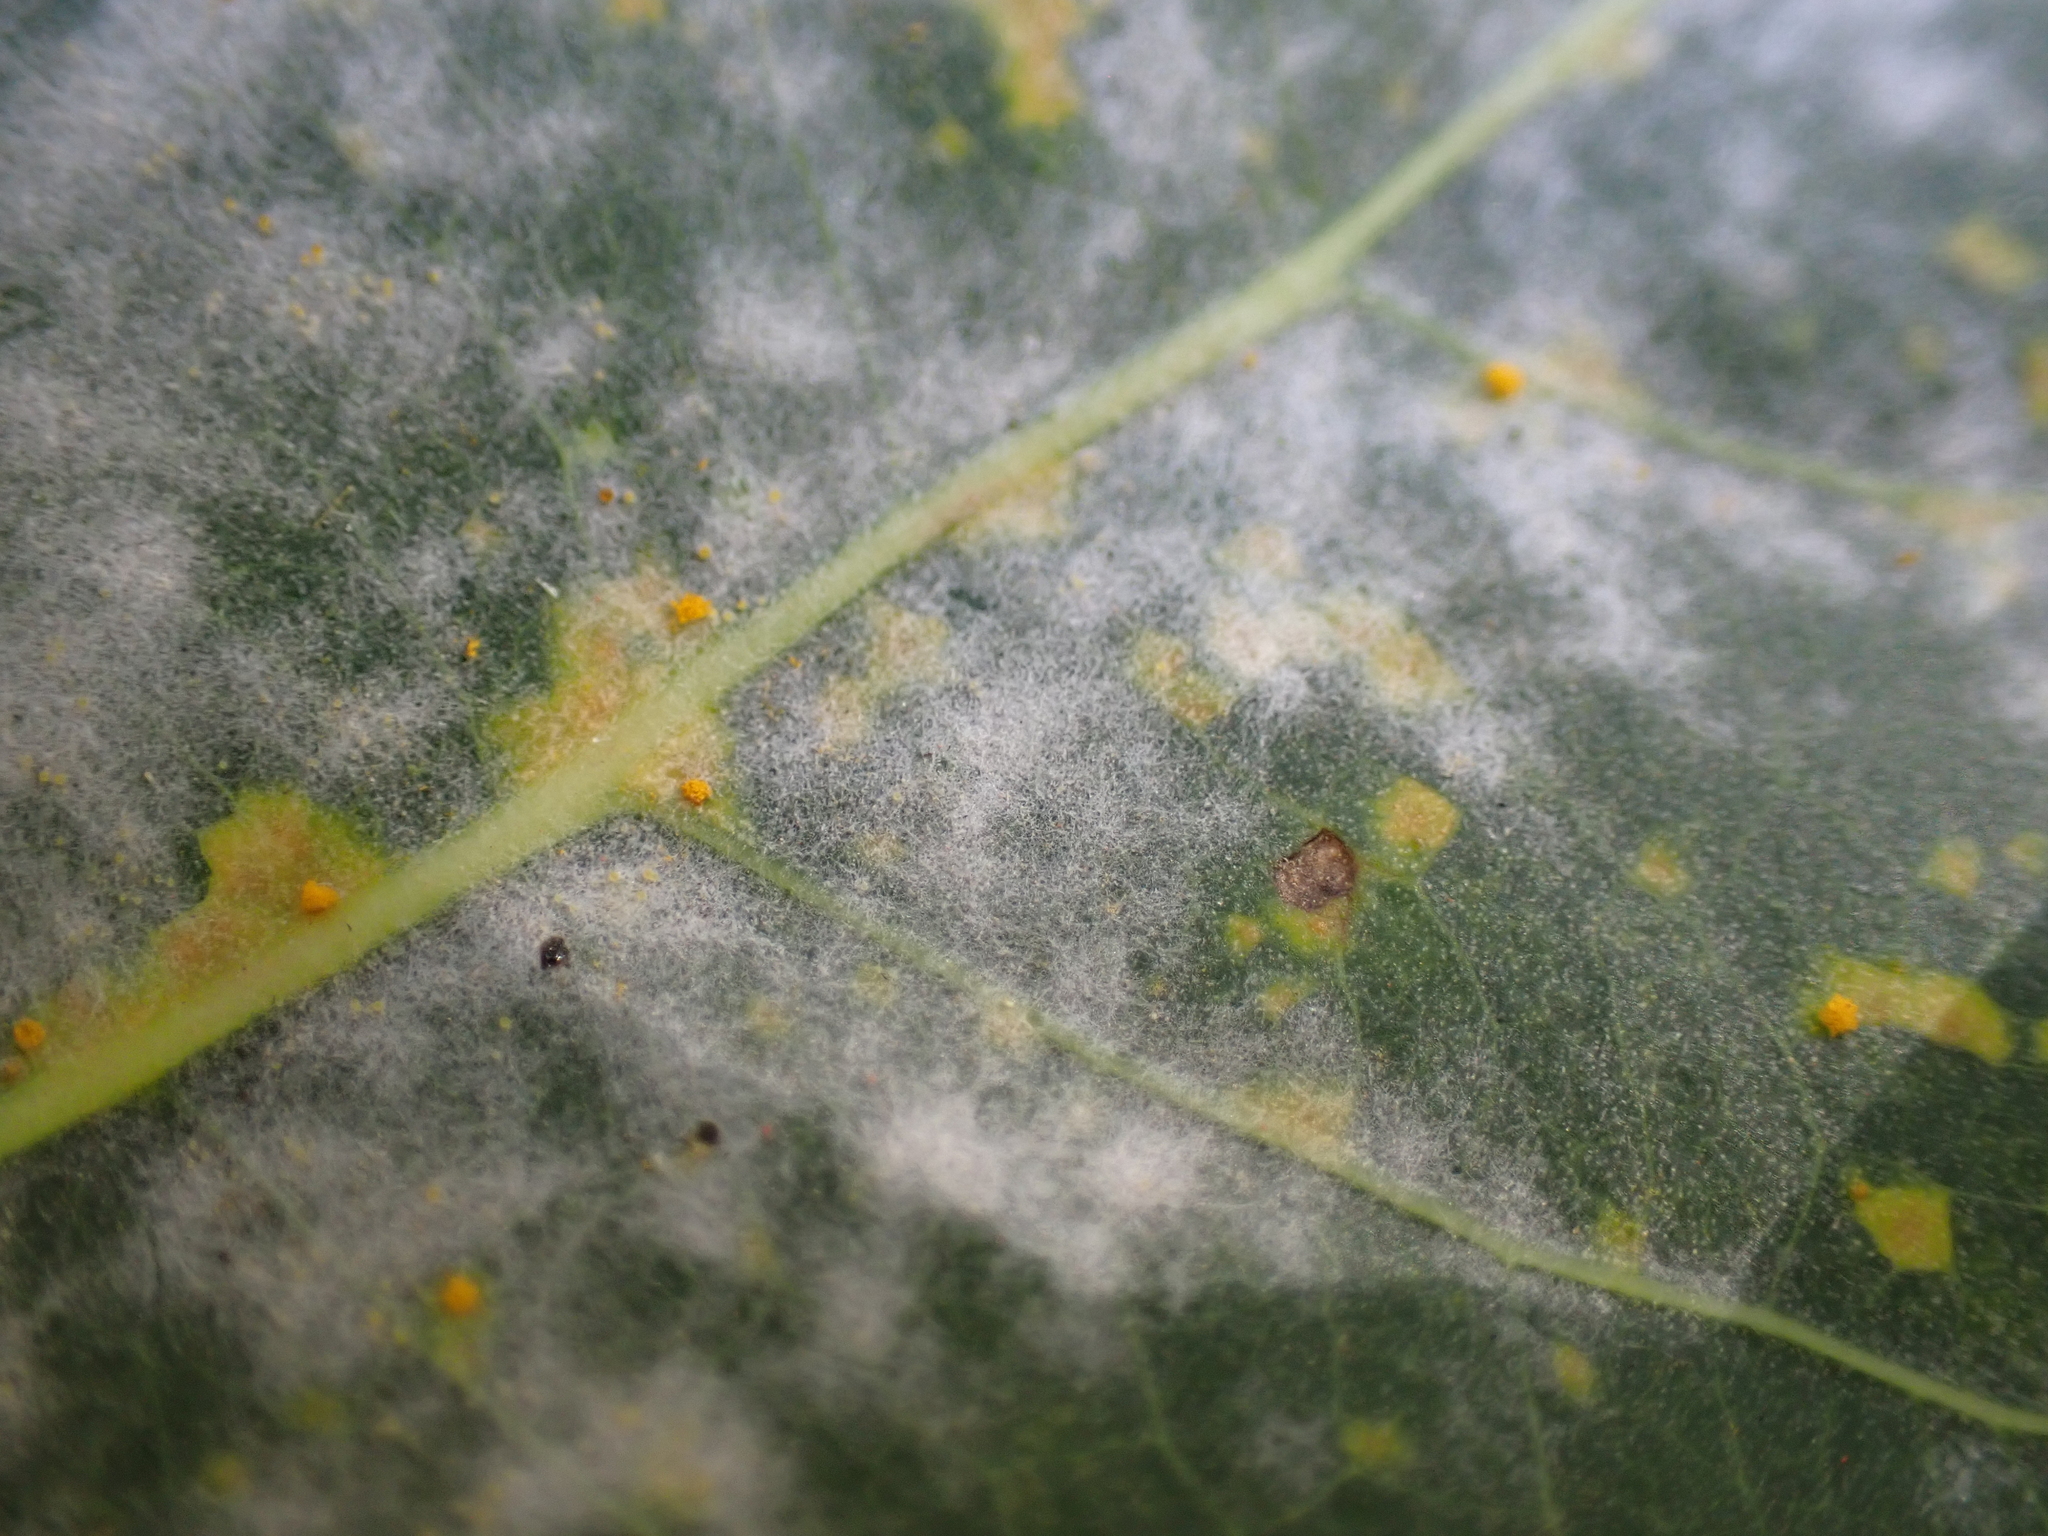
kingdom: Fungi
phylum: Ascomycota
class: Leotiomycetes
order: Helotiales
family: Erysiphaceae
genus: Erysiphe
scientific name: Erysiphe adunca
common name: Willow mildew
